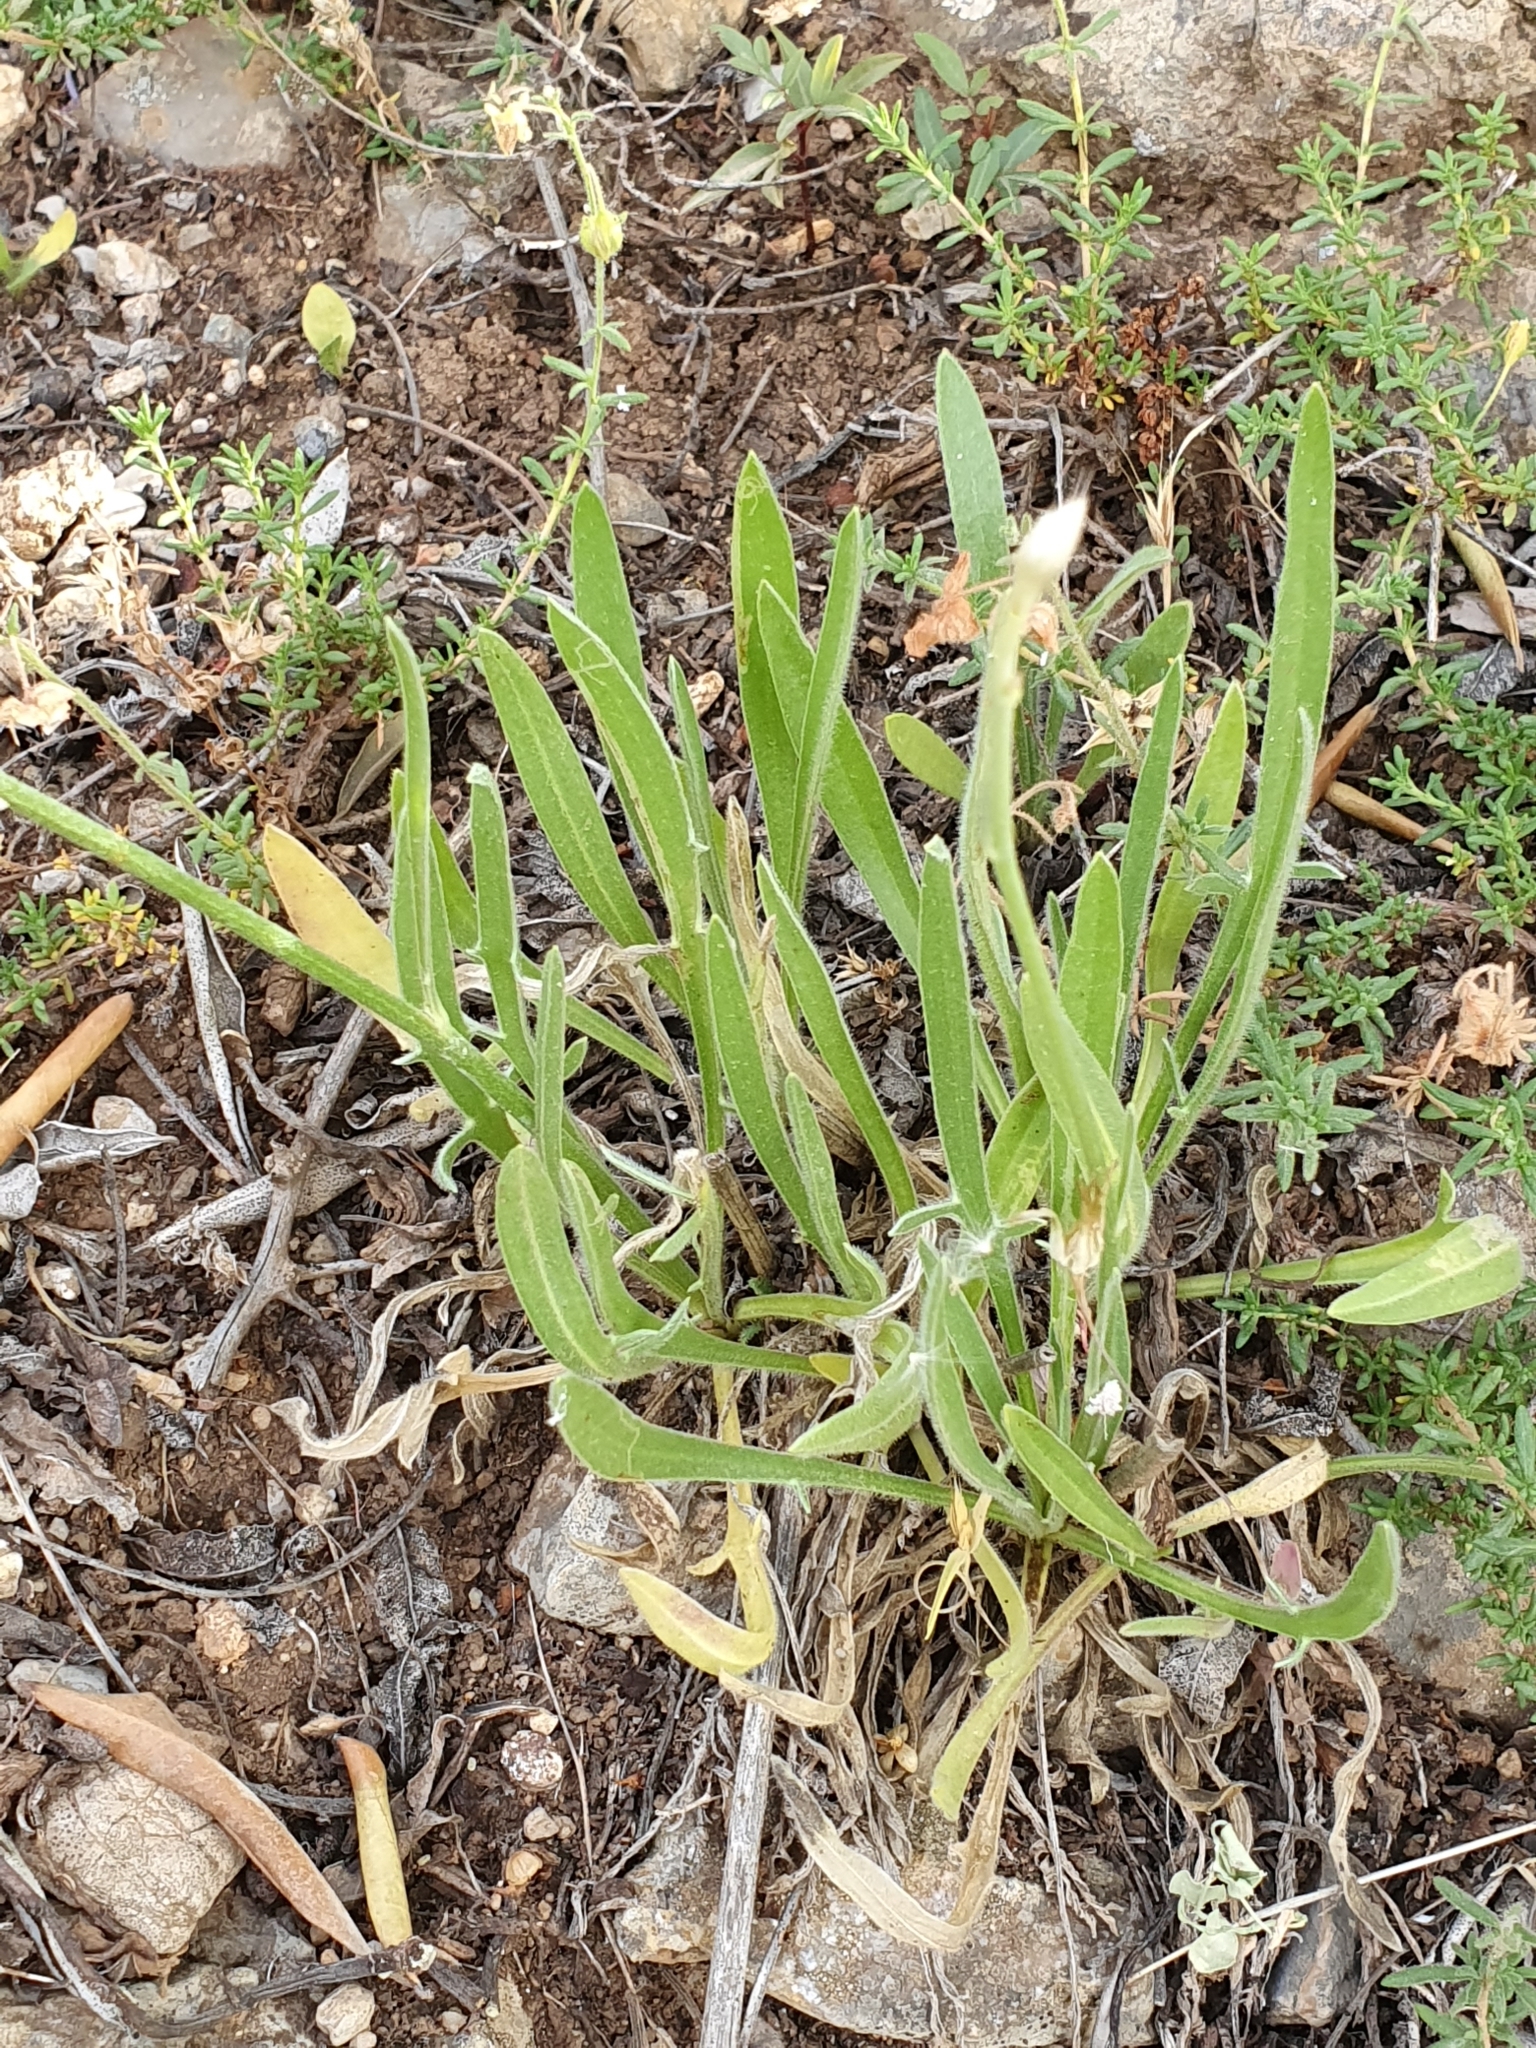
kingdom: Plantae
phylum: Tracheophyta
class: Magnoliopsida
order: Asterales
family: Asteraceae
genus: Catananche
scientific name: Catananche caerulea
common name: Blue cupidone
